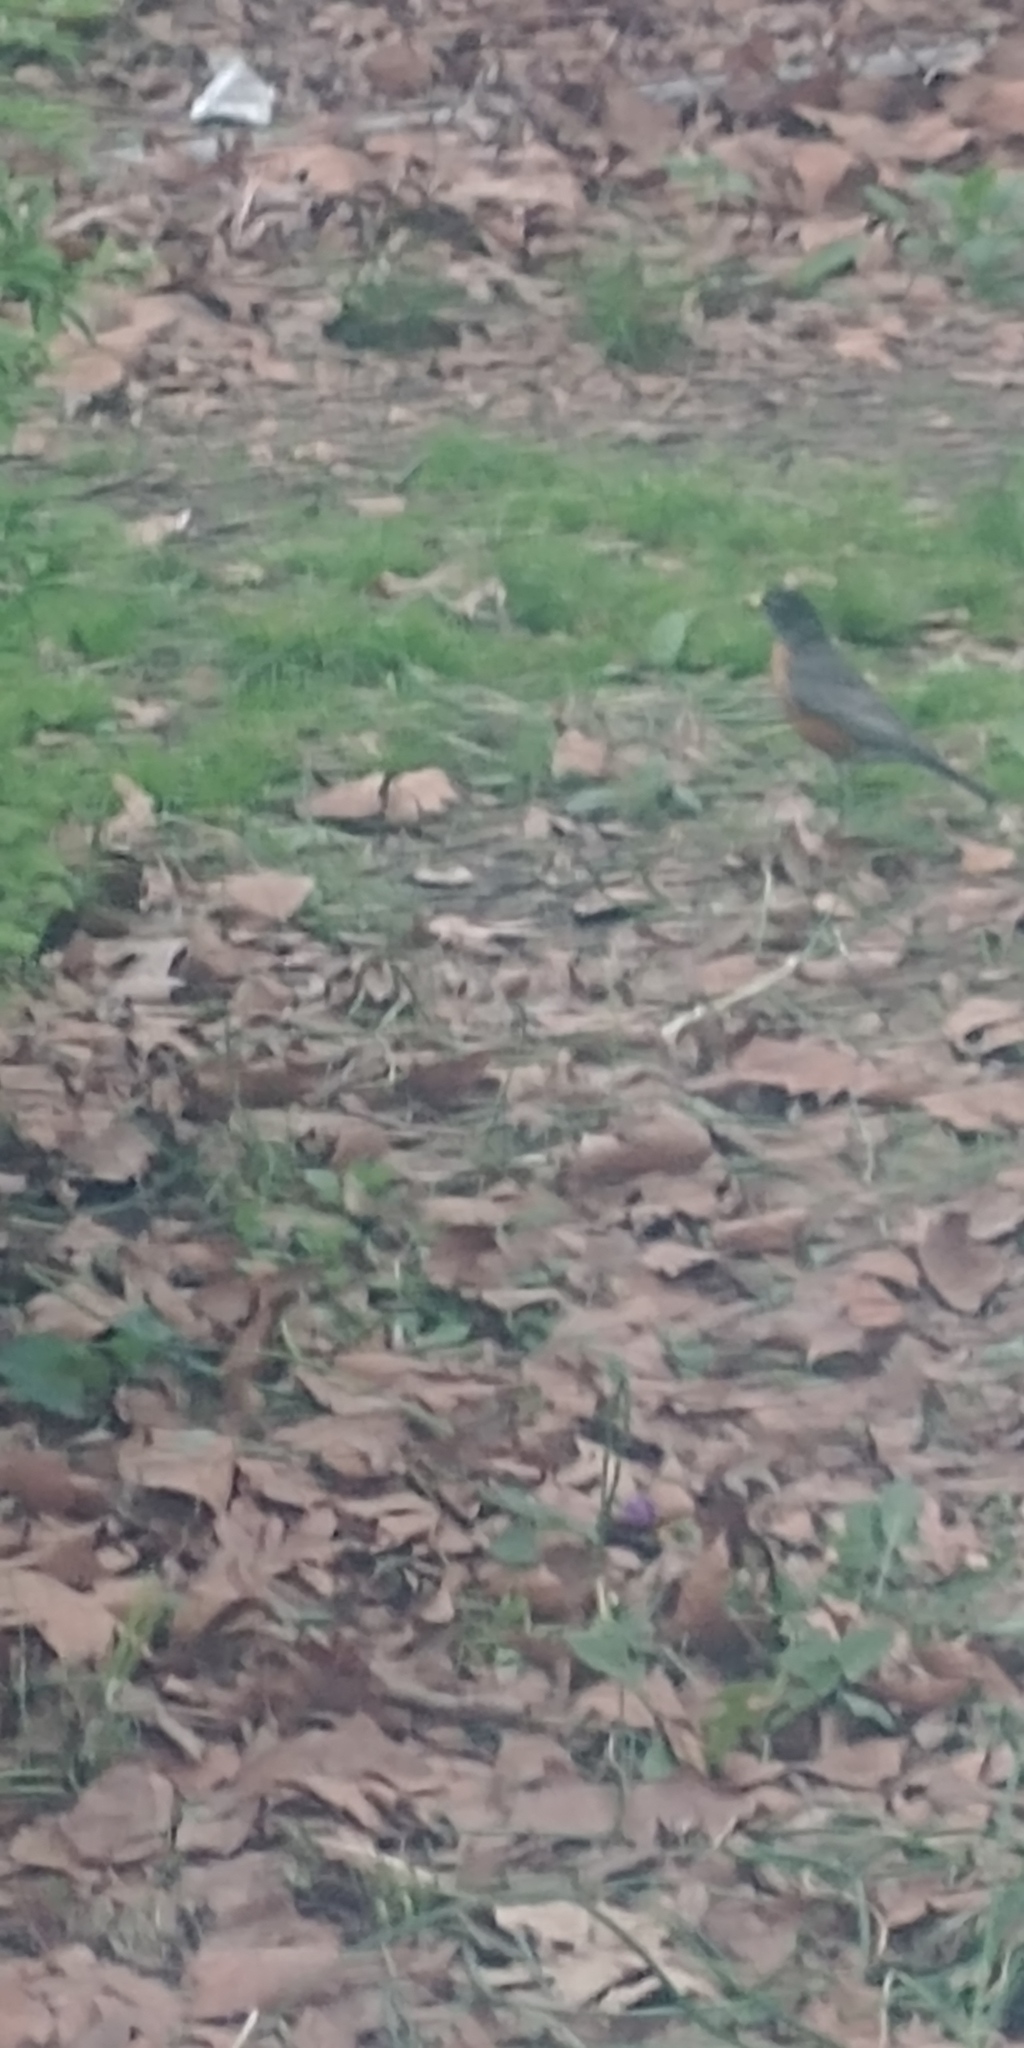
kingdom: Animalia
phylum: Chordata
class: Aves
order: Passeriformes
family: Turdidae
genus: Turdus
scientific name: Turdus migratorius
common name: American robin
